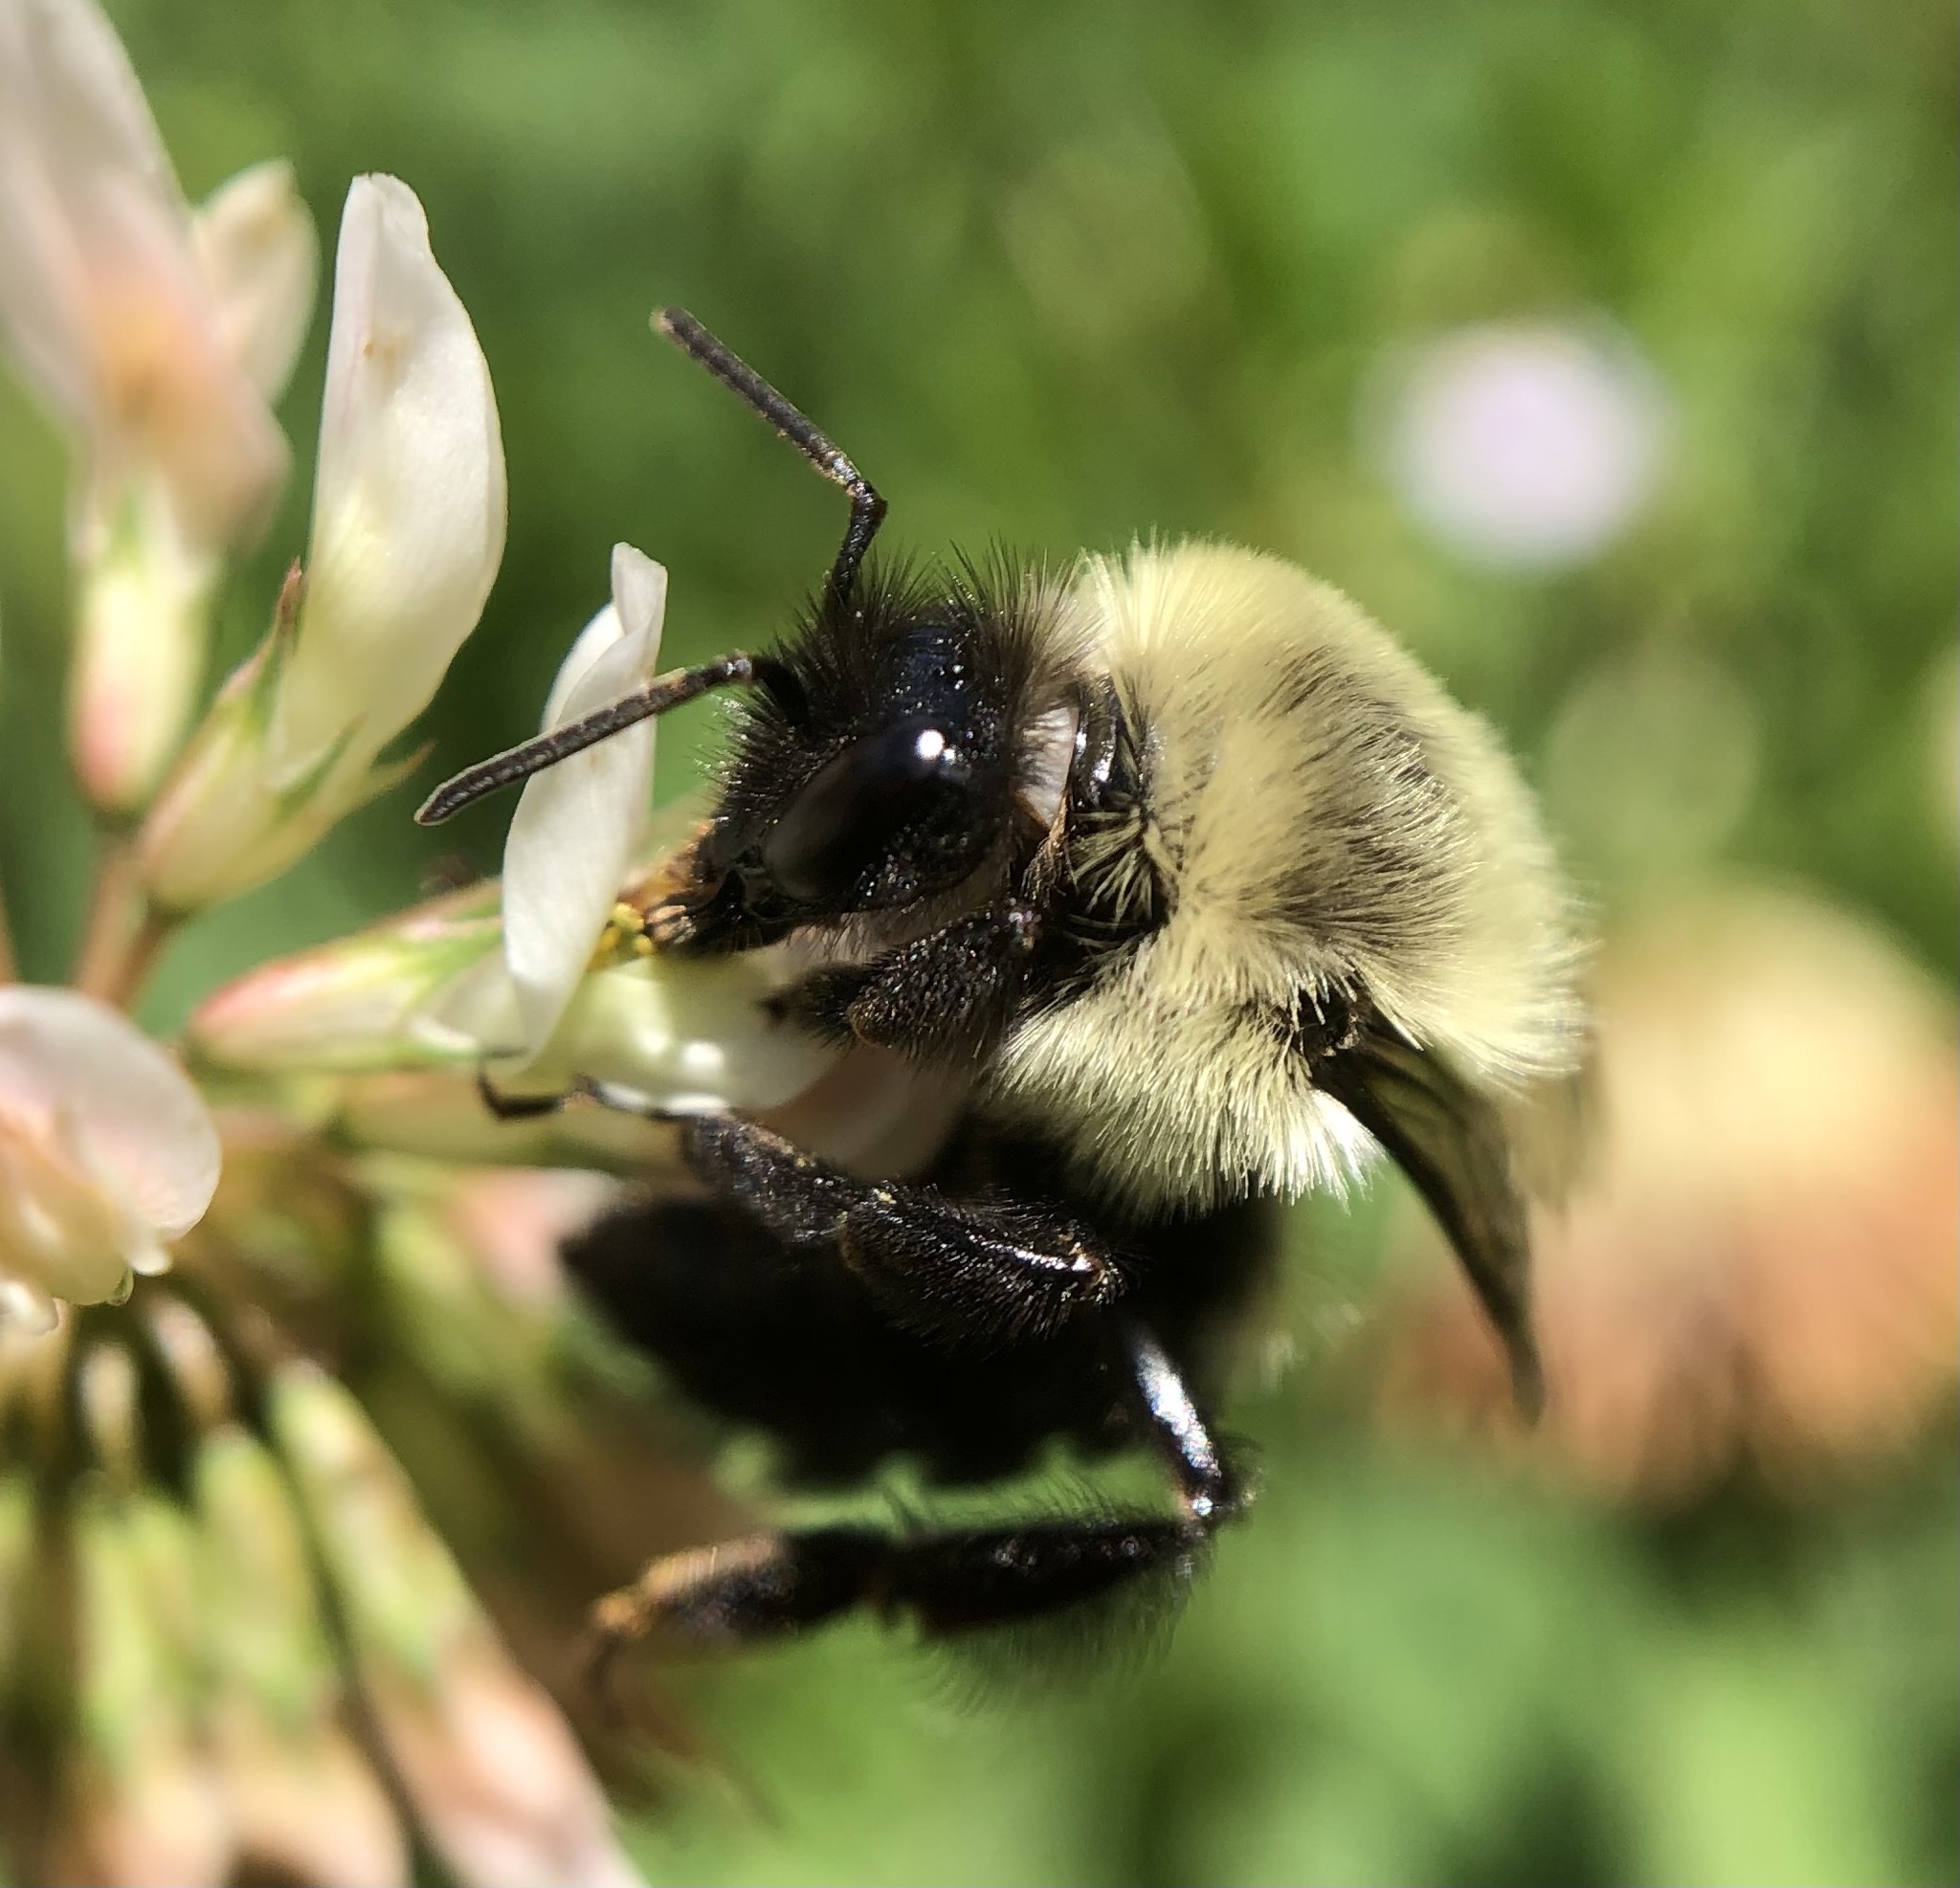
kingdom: Animalia
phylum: Arthropoda
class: Insecta
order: Hymenoptera
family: Apidae
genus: Bombus
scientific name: Bombus impatiens
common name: Common eastern bumble bee
